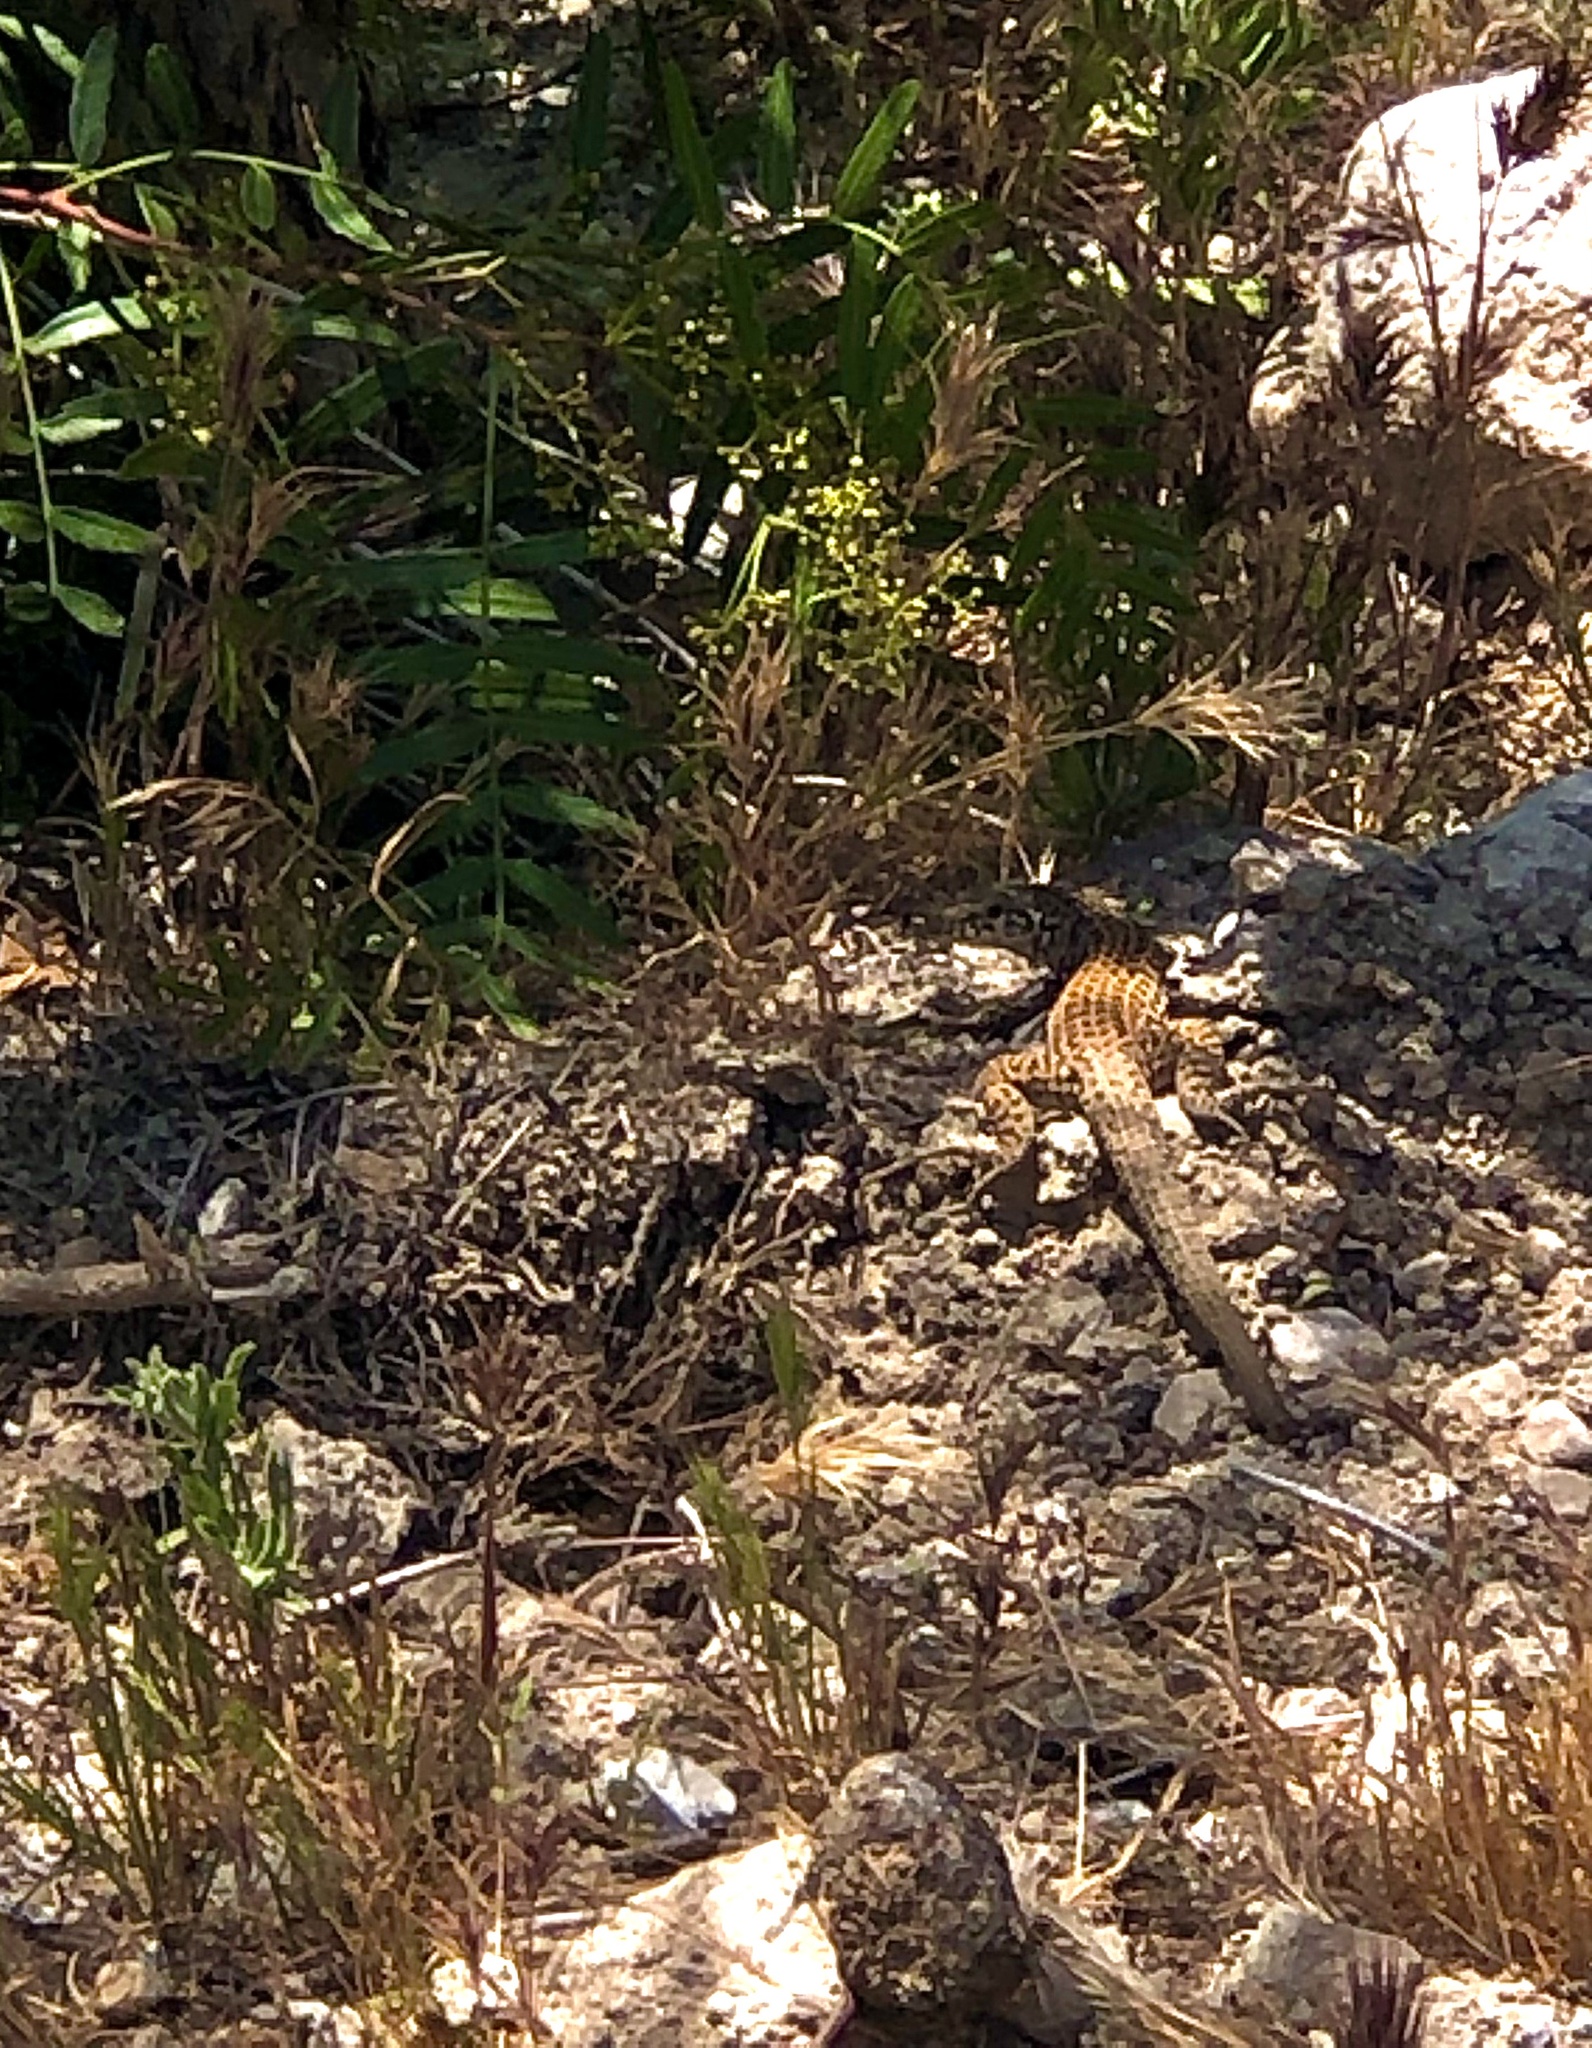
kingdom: Animalia
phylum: Chordata
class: Squamata
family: Teiidae
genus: Aspidoscelis
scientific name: Aspidoscelis tigris
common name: Tiger whiptail
